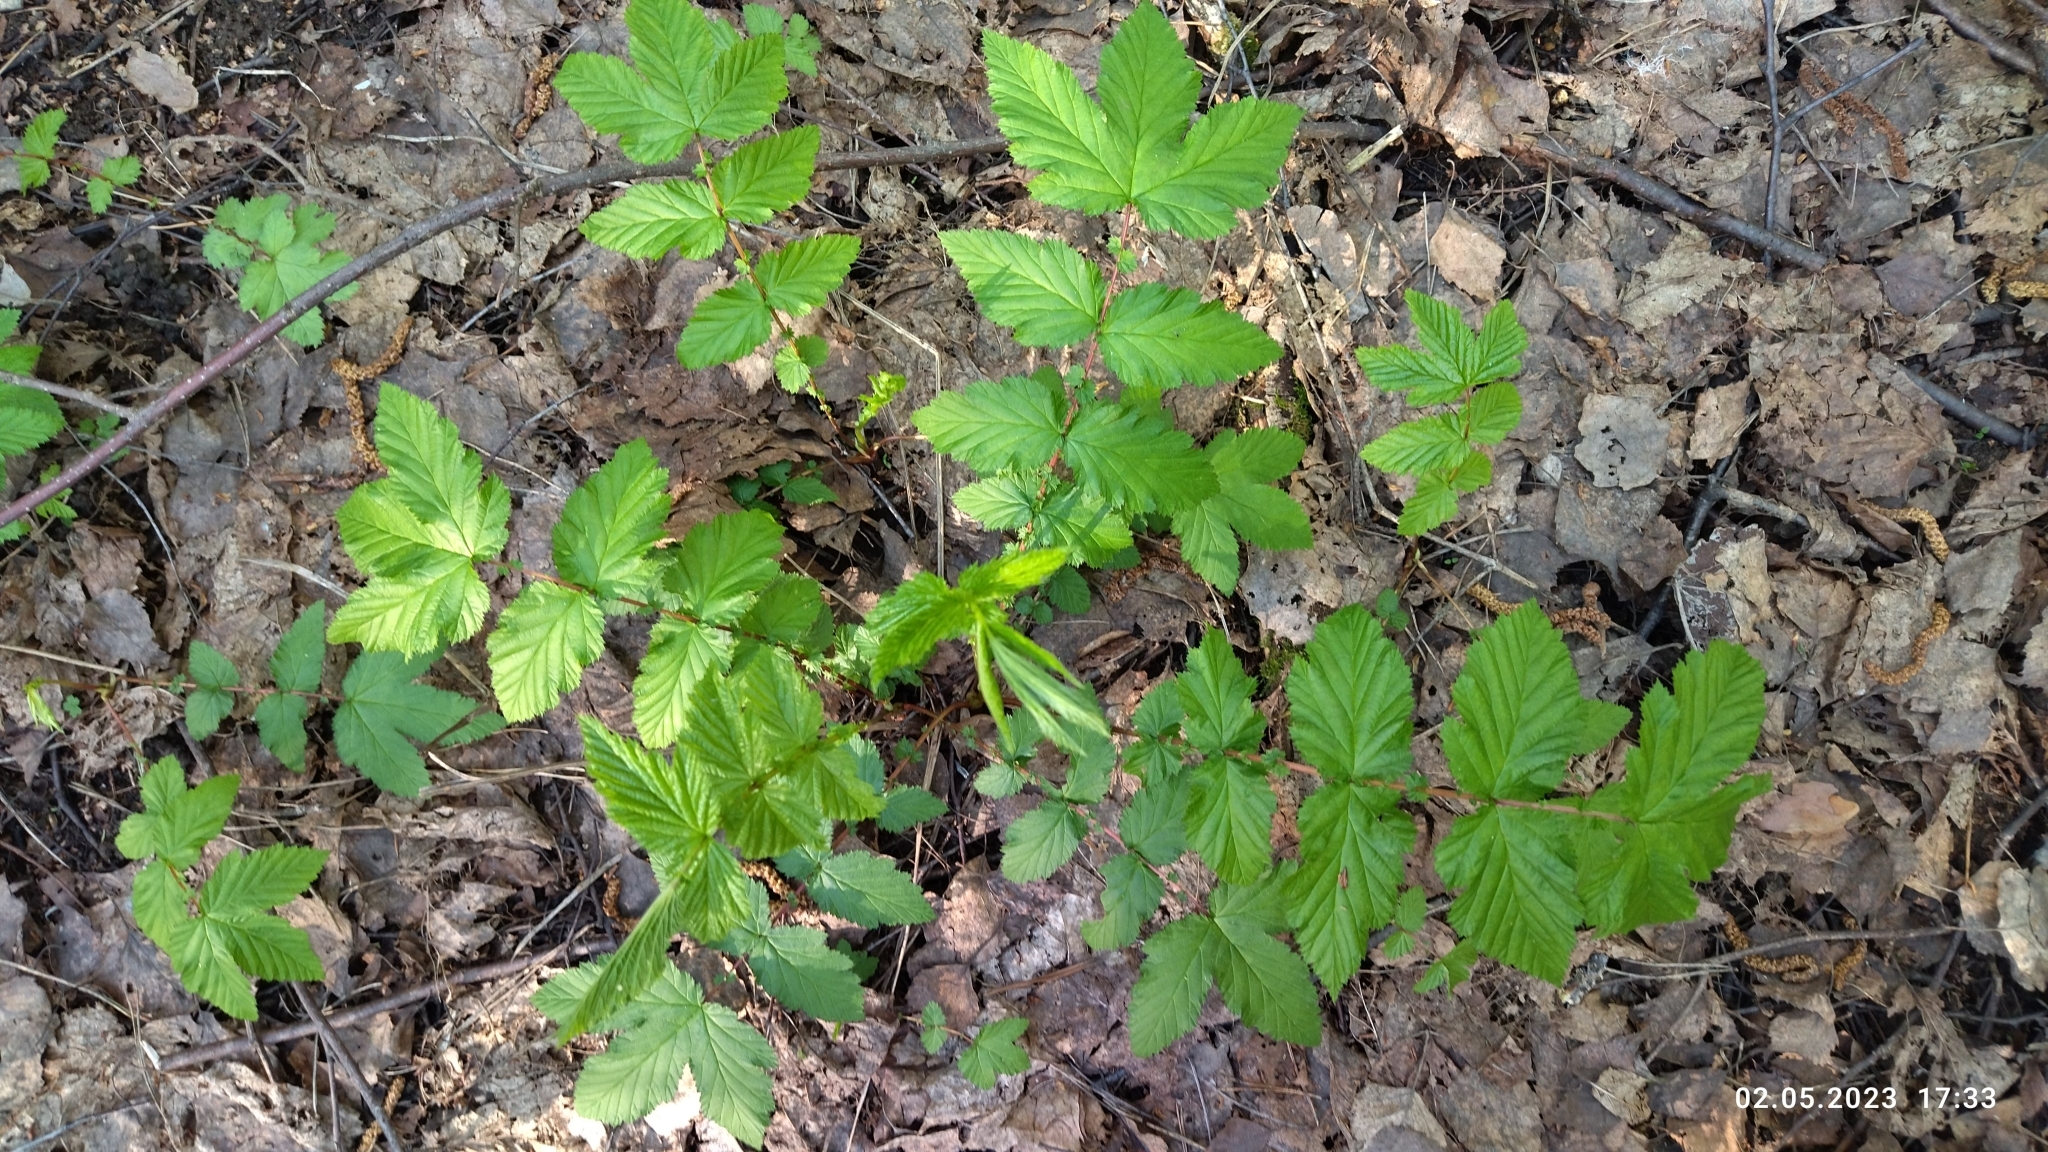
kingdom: Plantae
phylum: Tracheophyta
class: Magnoliopsida
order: Rosales
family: Rosaceae
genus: Filipendula
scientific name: Filipendula ulmaria
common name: Meadowsweet
